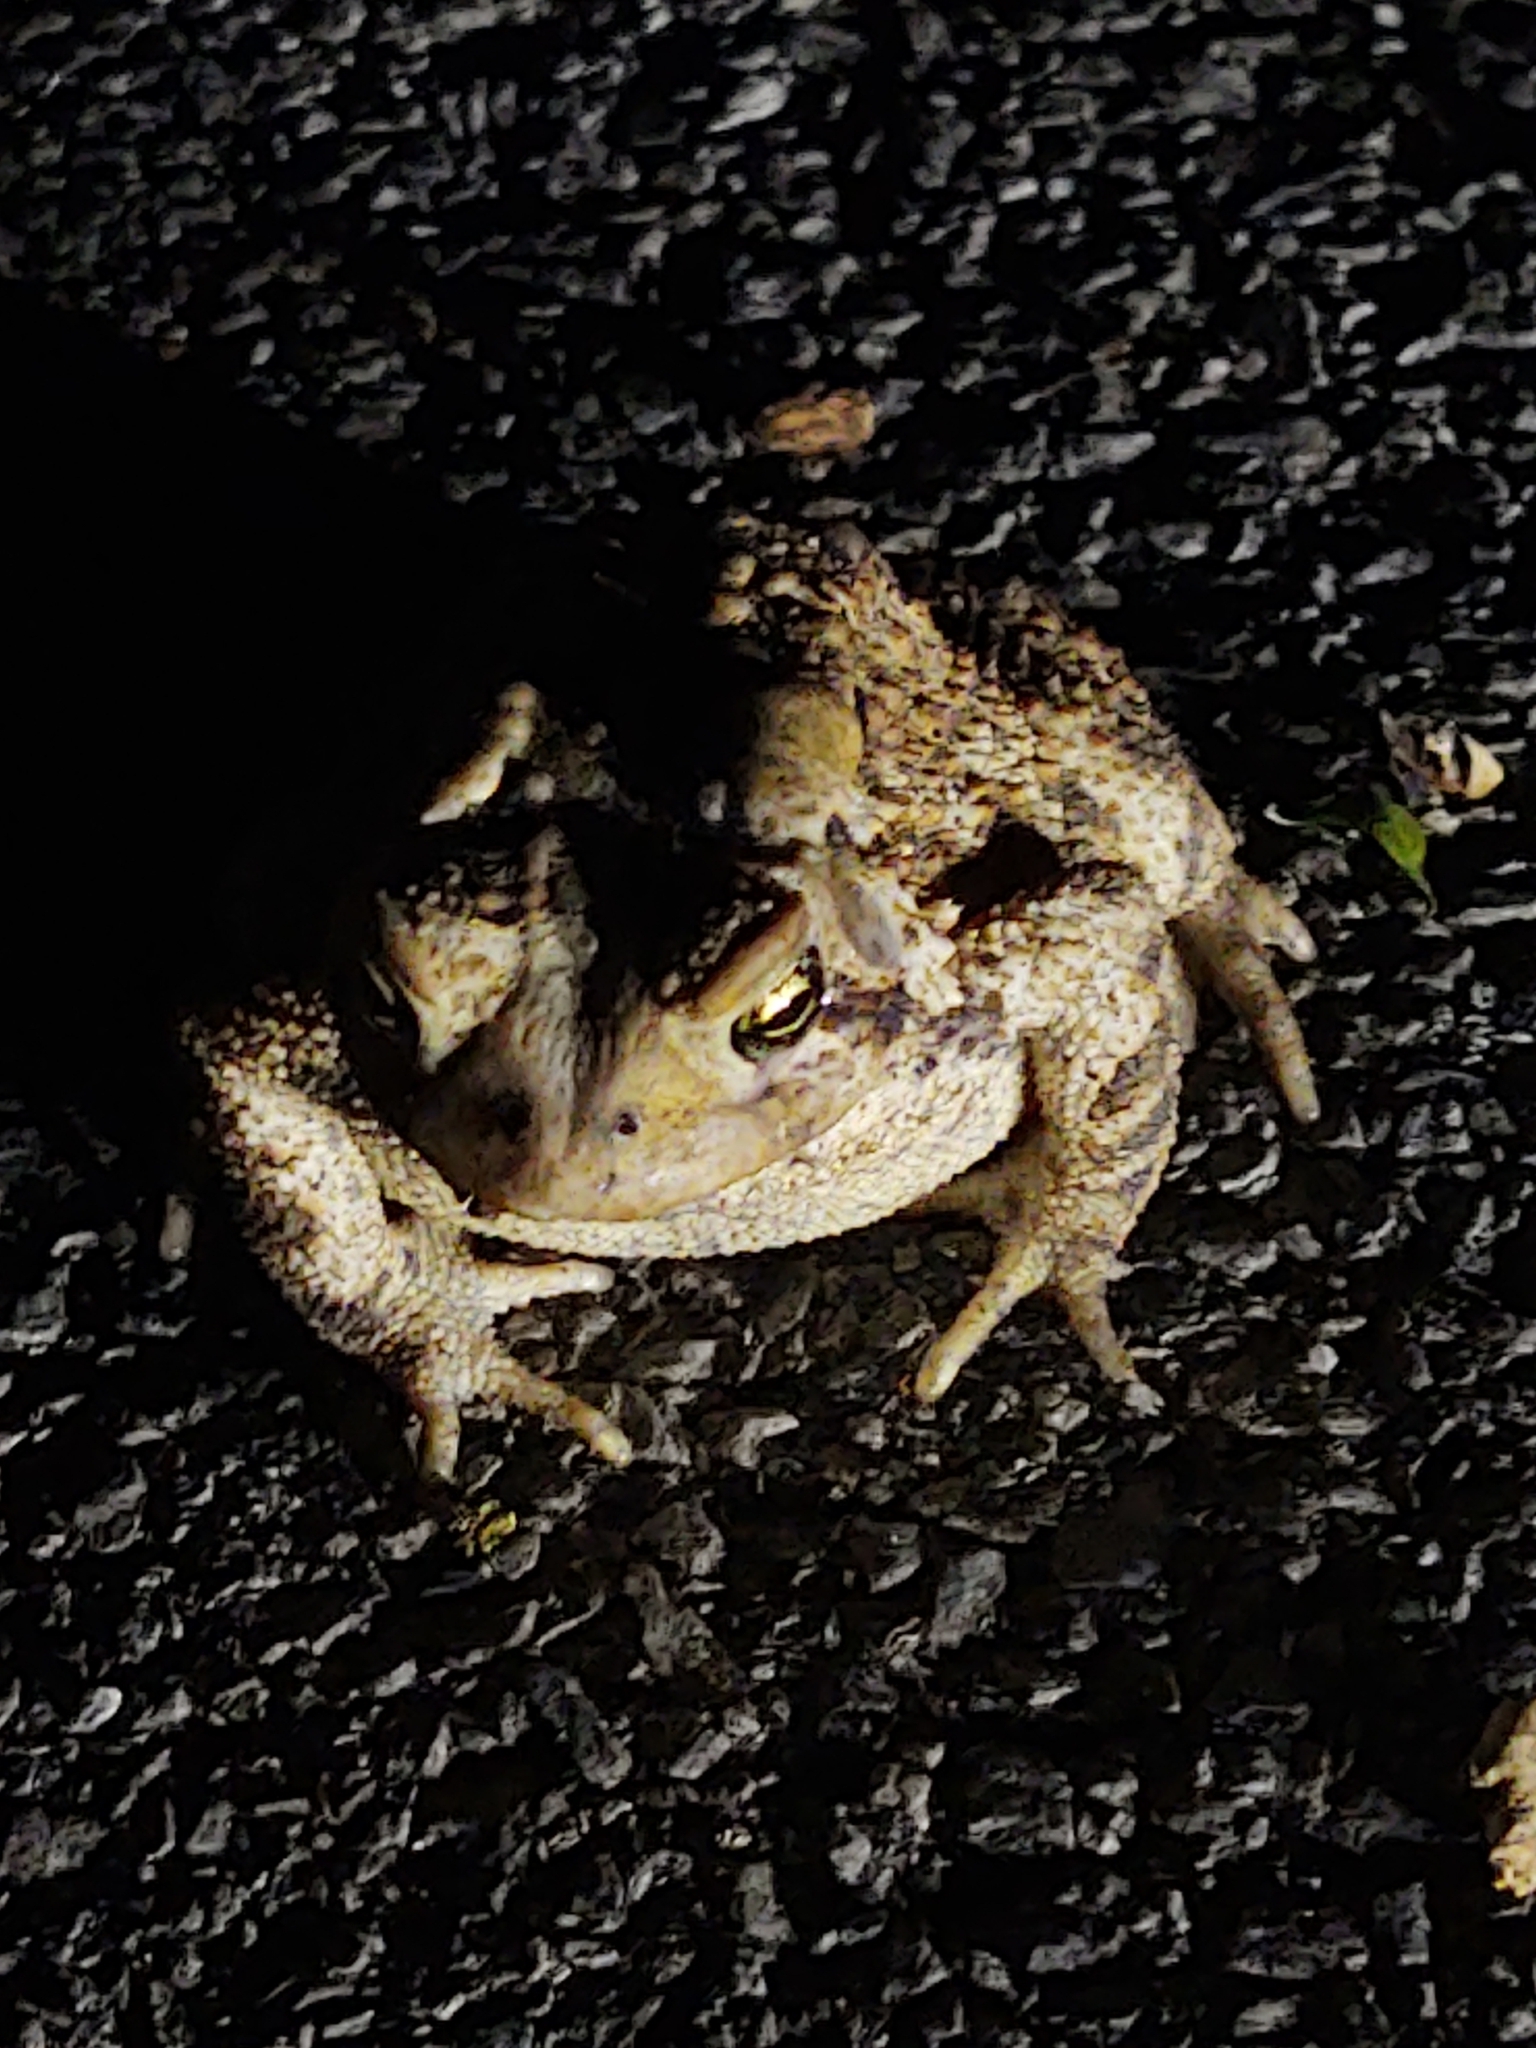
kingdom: Animalia
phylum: Chordata
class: Amphibia
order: Anura
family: Bufonidae
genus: Anaxyrus
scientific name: Anaxyrus americanus
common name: American toad
